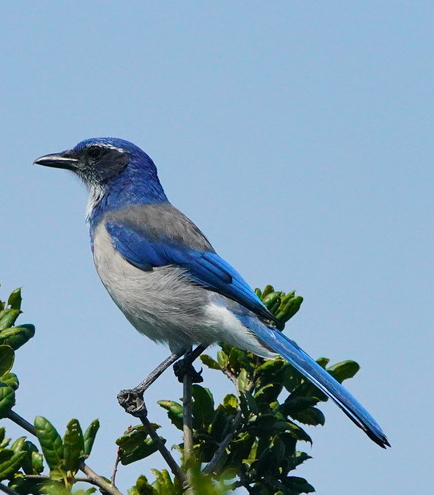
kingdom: Animalia
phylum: Chordata
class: Aves
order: Passeriformes
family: Corvidae
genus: Aphelocoma
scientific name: Aphelocoma californica
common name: California scrub-jay
